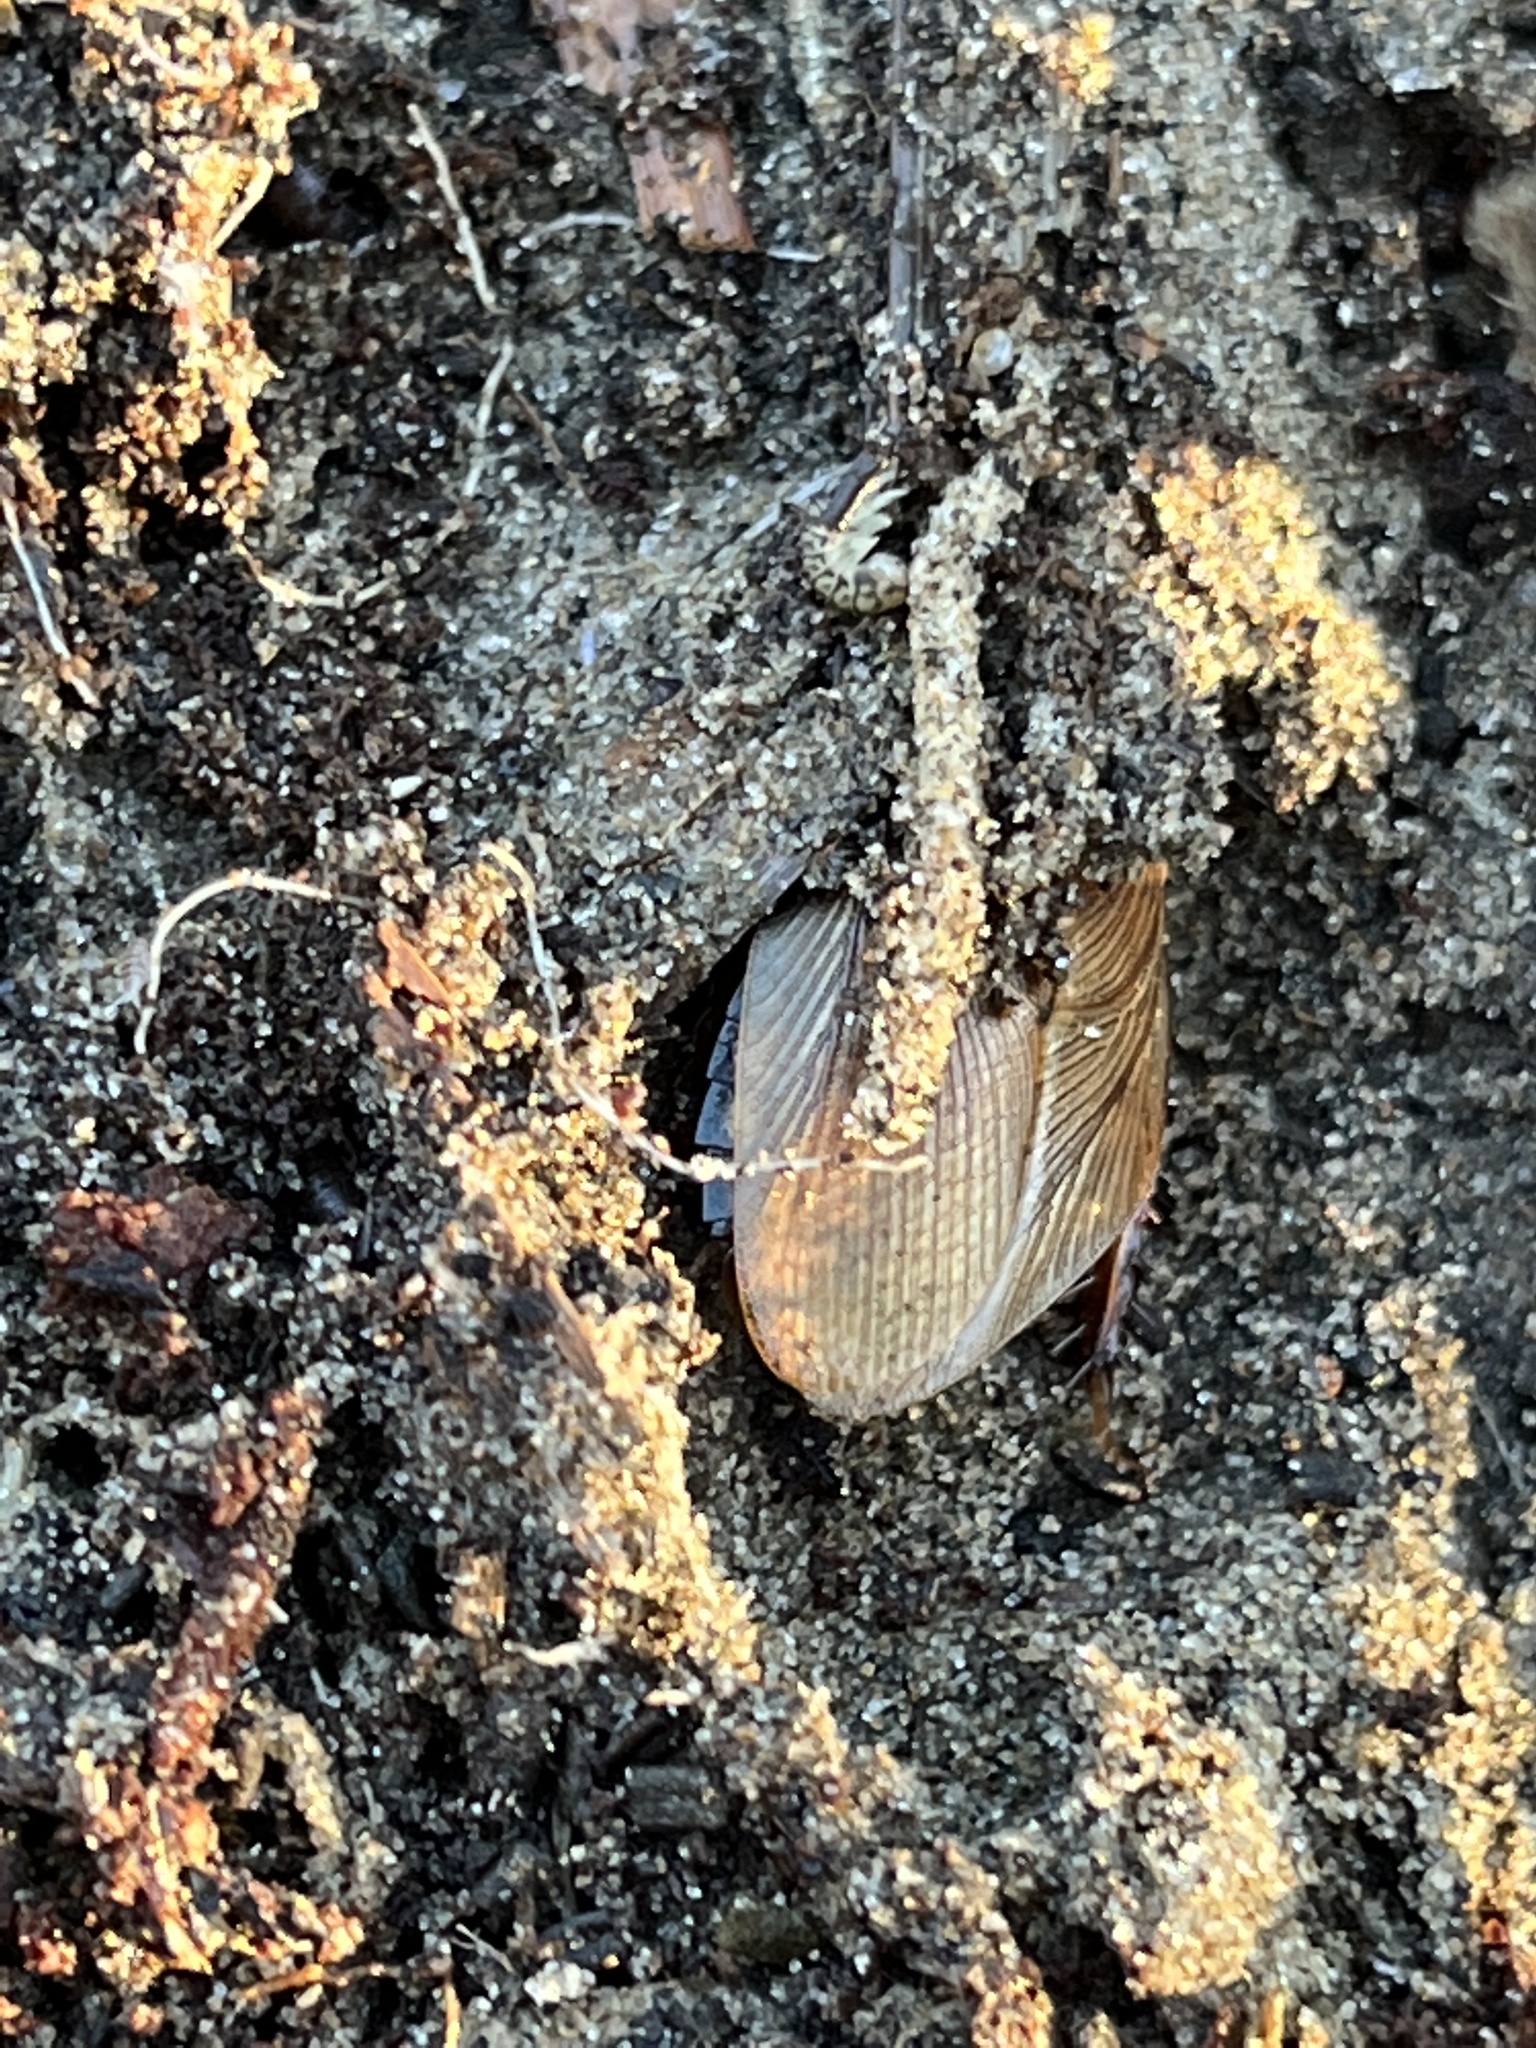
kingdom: Animalia
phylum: Arthropoda
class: Insecta
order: Blattodea
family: Blaberidae
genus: Pycnoscelus
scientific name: Pycnoscelus surinamensis
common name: Surinam cockroach
